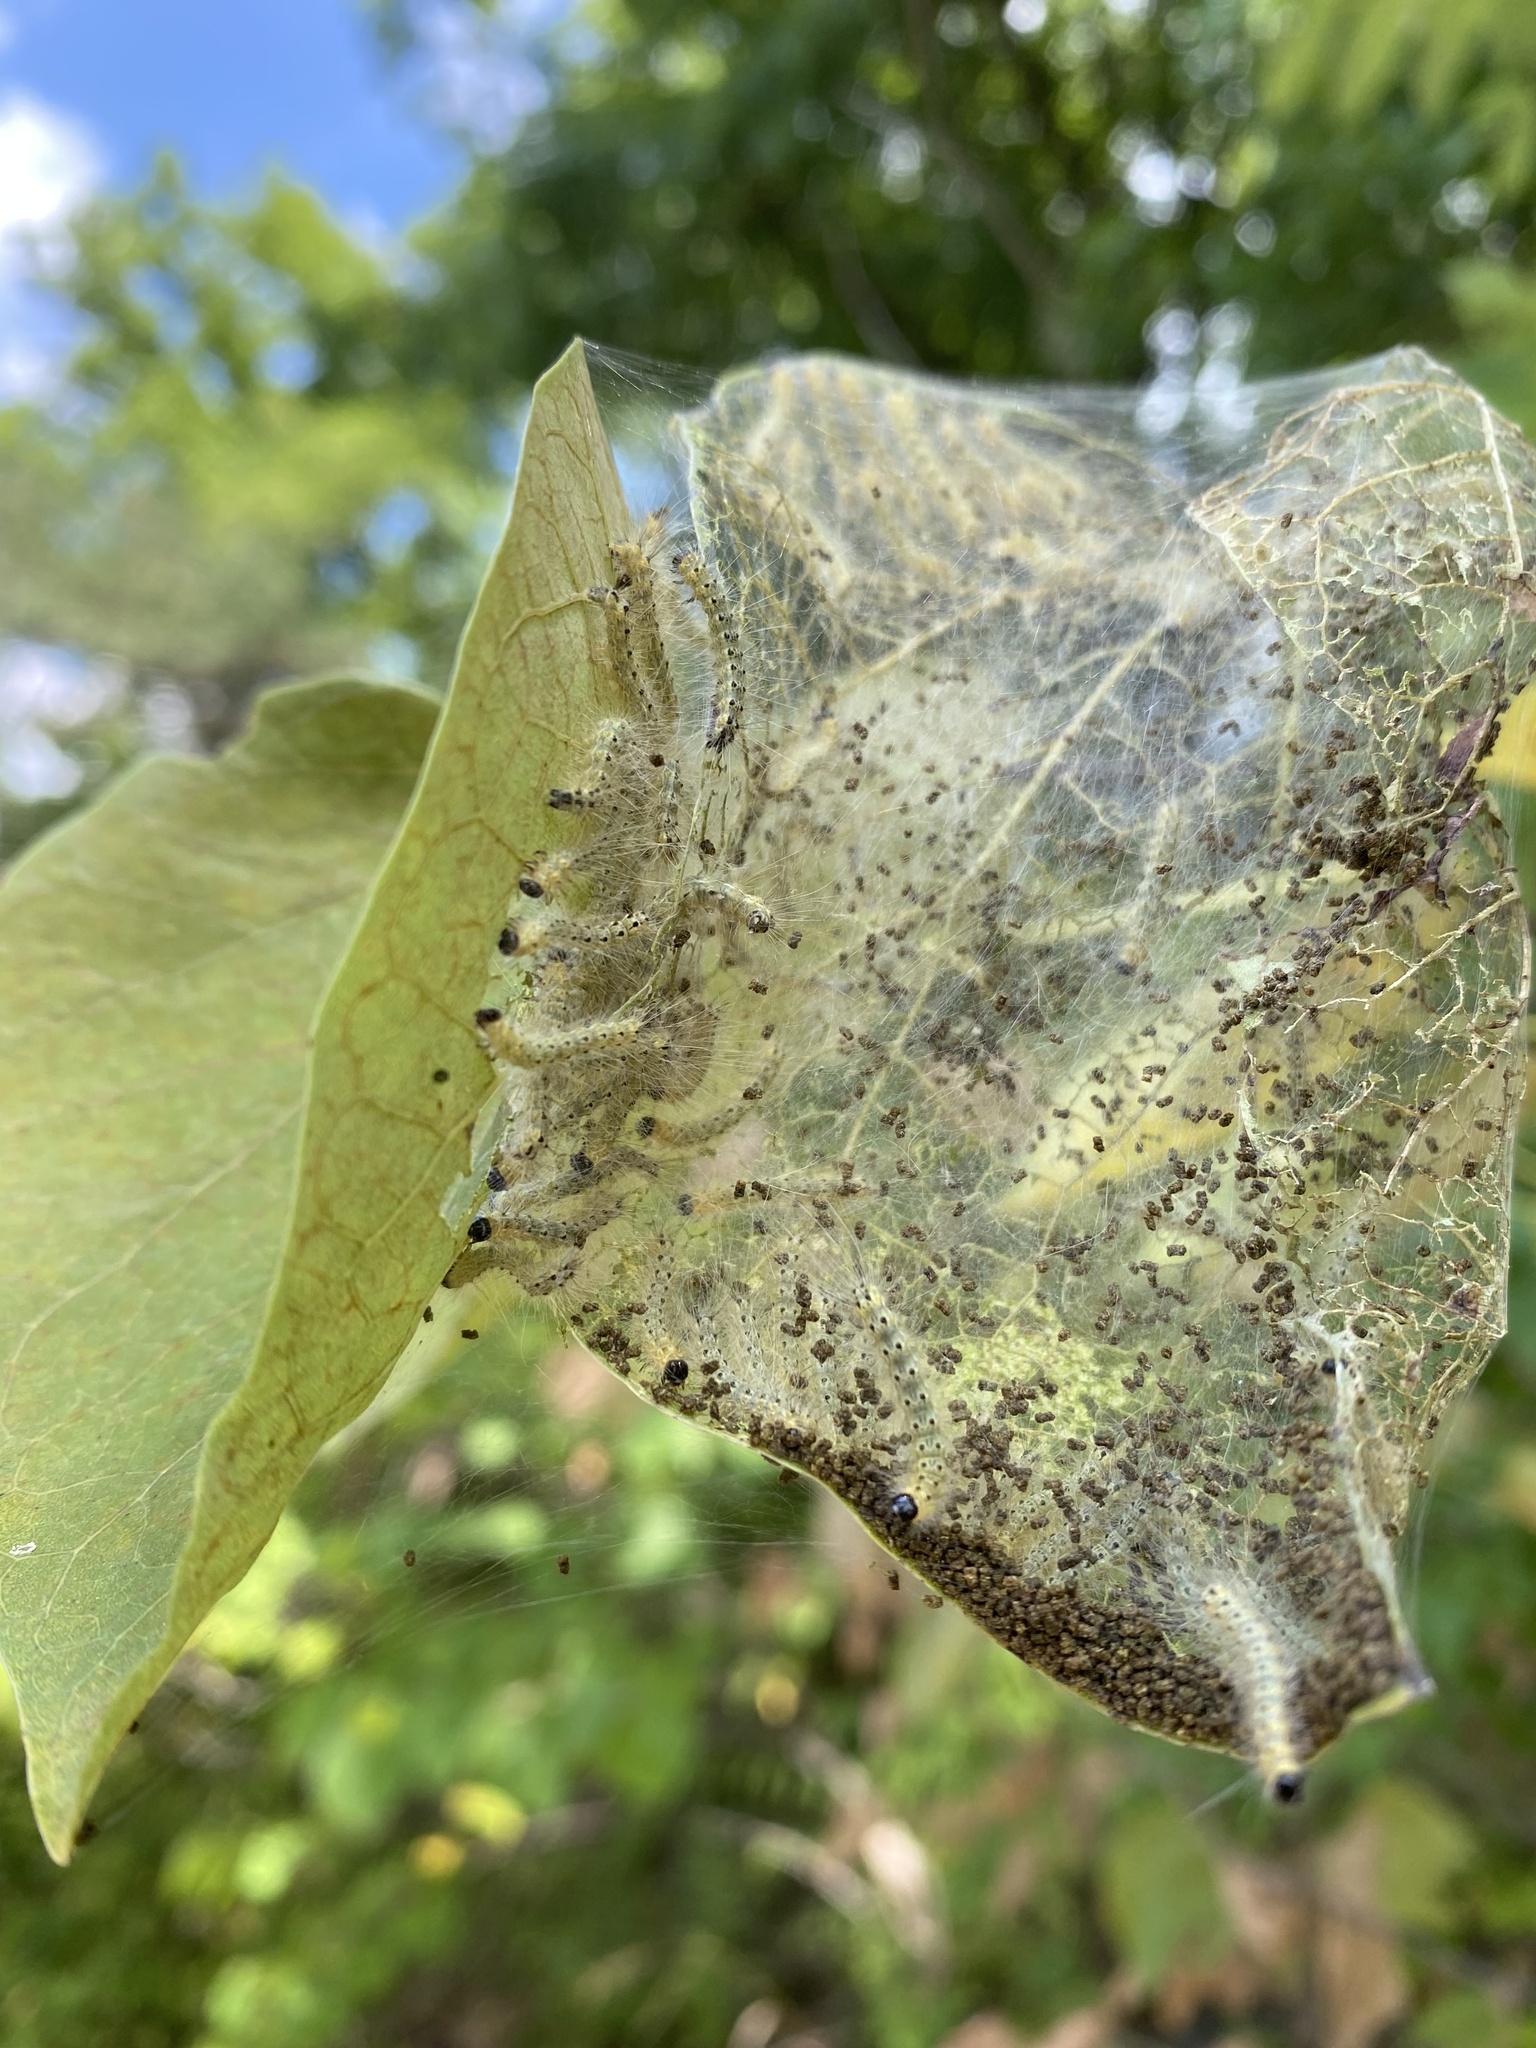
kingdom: Animalia
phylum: Arthropoda
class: Insecta
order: Lepidoptera
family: Erebidae
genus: Hyphantria
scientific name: Hyphantria cunea
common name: American white moth
